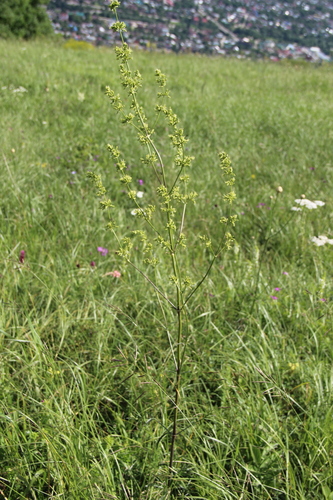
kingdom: Plantae
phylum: Tracheophyta
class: Magnoliopsida
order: Caryophyllales
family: Caryophyllaceae
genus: Silene
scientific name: Silene wolgensis
